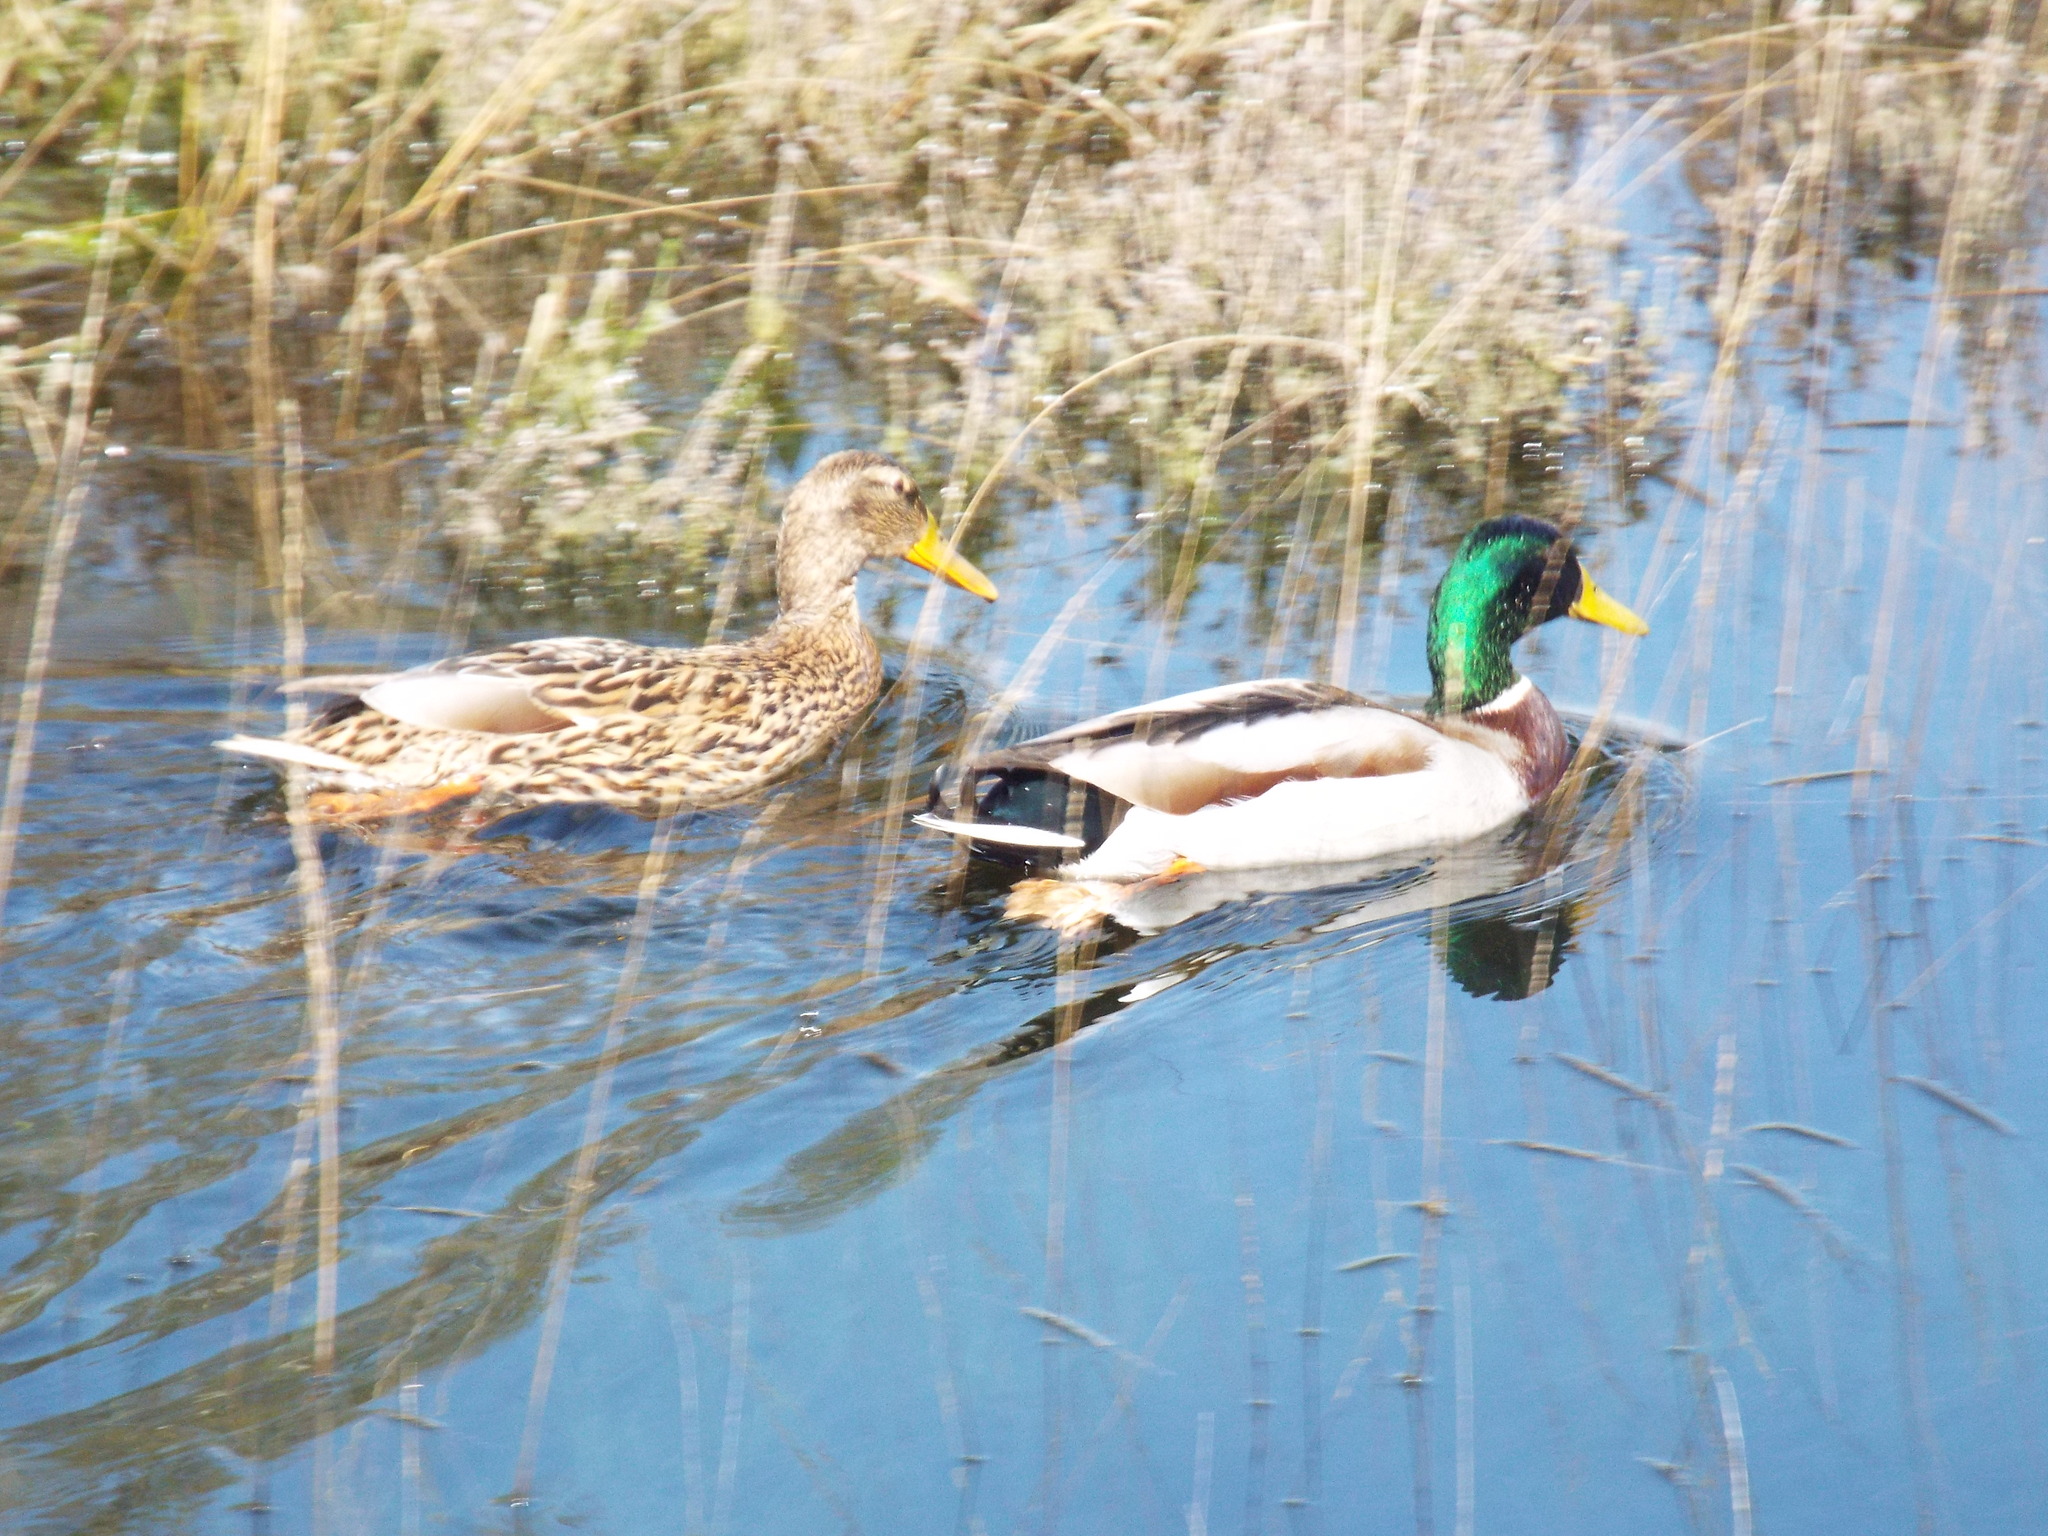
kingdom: Animalia
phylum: Chordata
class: Aves
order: Anseriformes
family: Anatidae
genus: Anas
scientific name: Anas platyrhynchos
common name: Mallard
